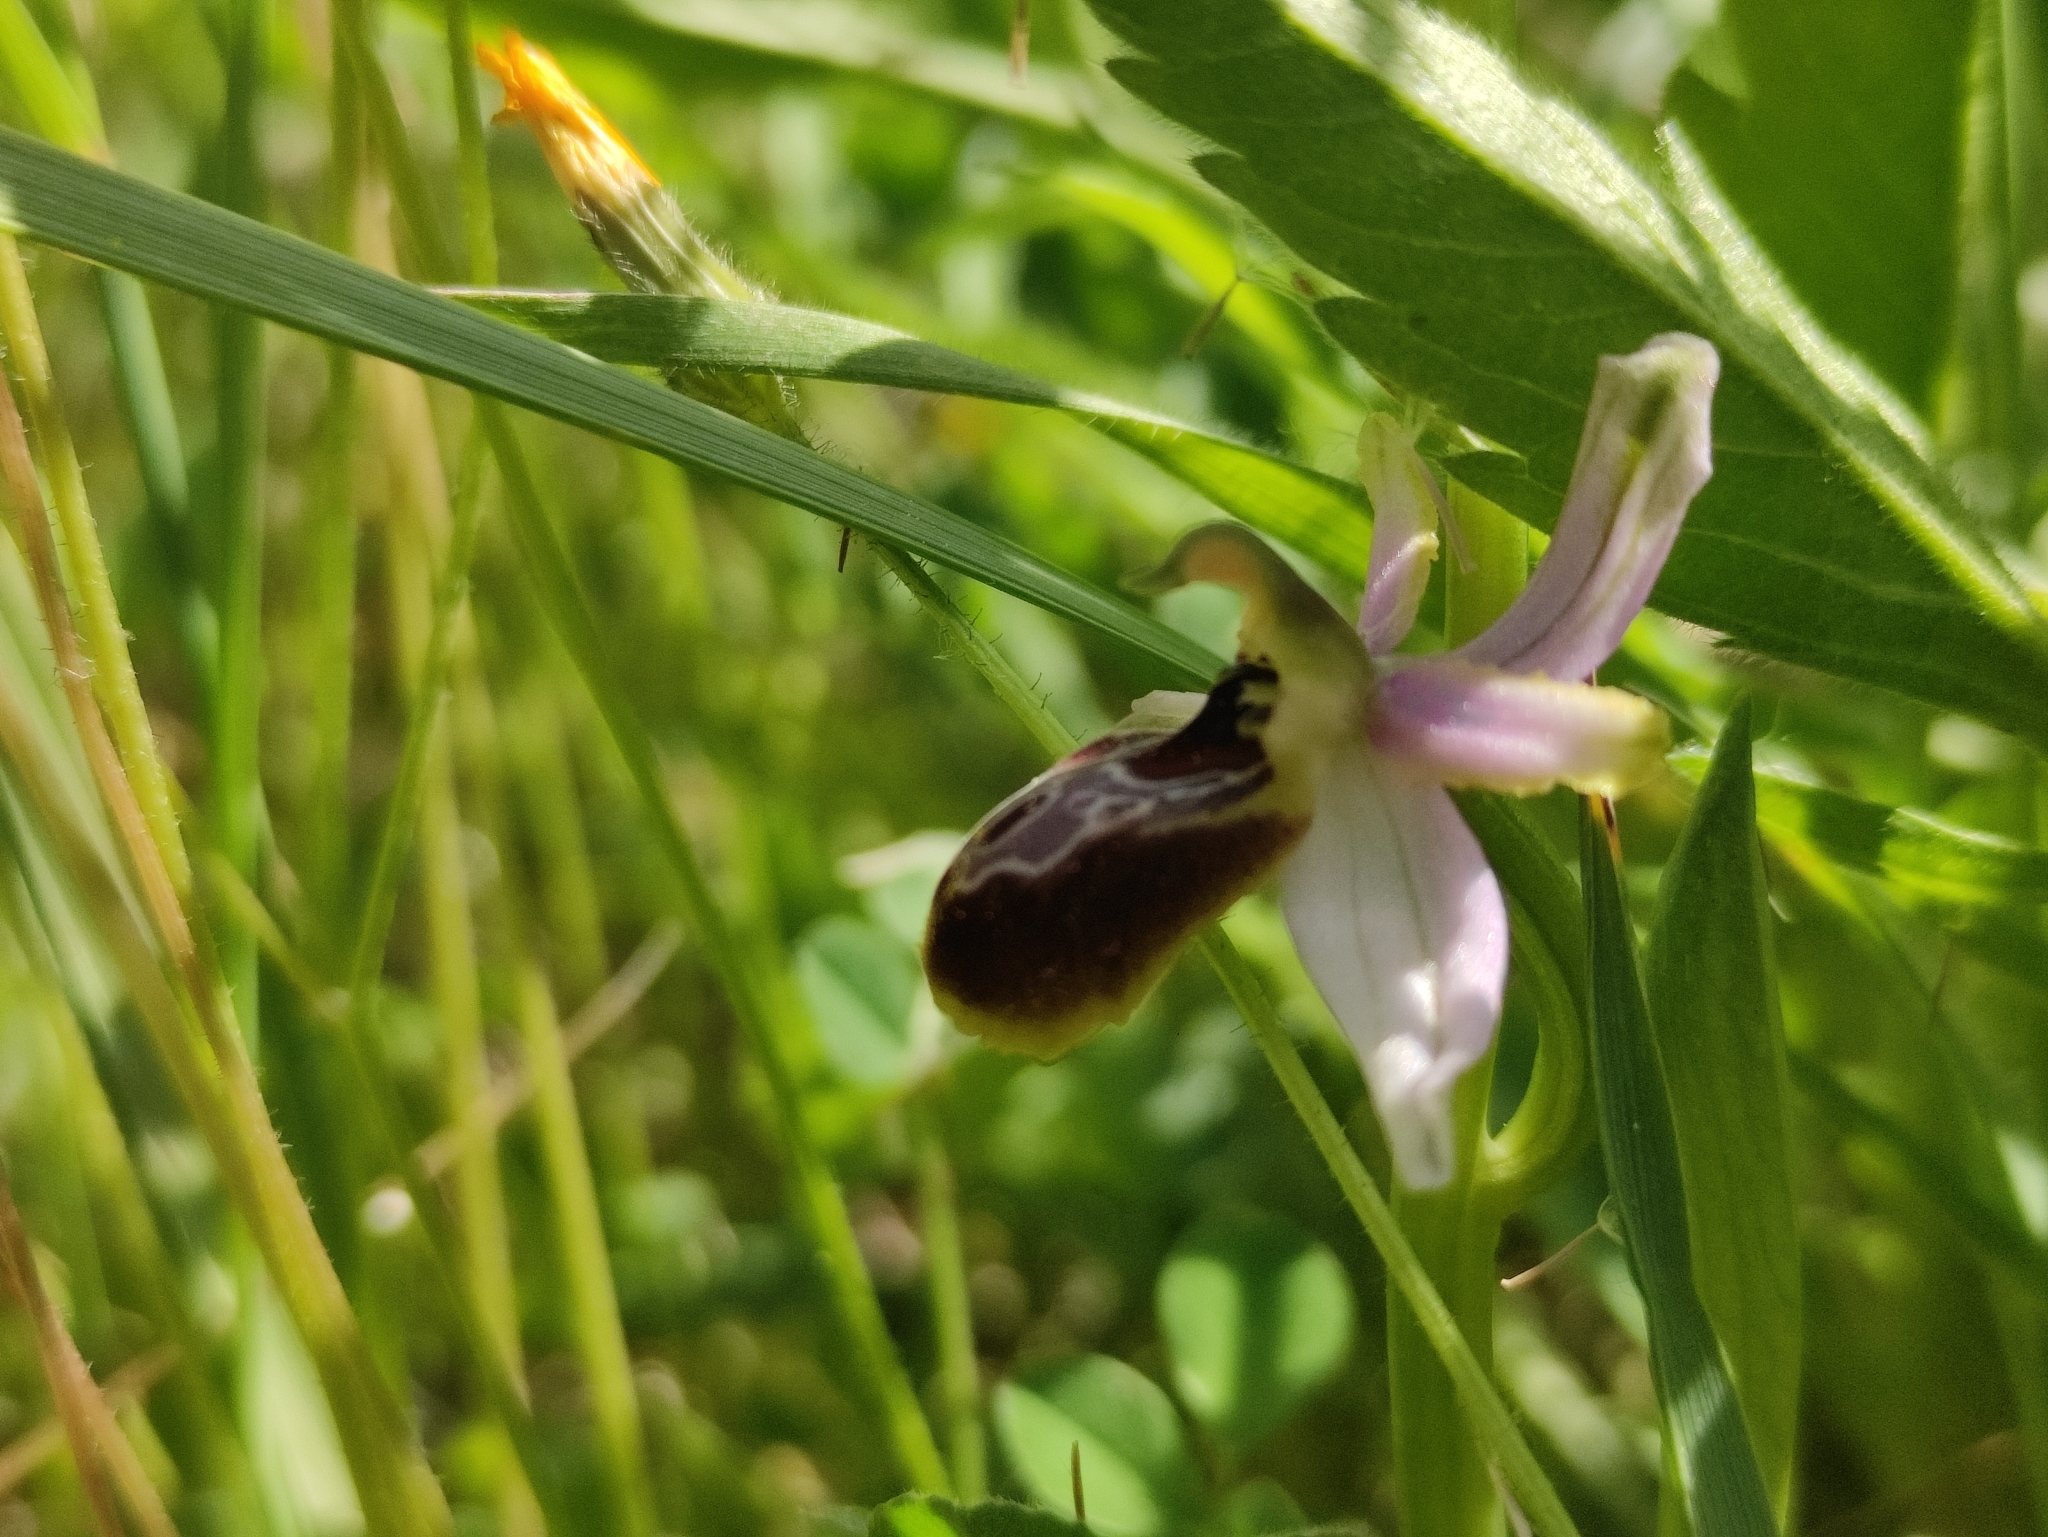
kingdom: Plantae
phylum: Tracheophyta
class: Liliopsida
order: Asparagales
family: Orchidaceae
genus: Ophrys
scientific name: Ophrys sphegodes
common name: Early spider-orchid
